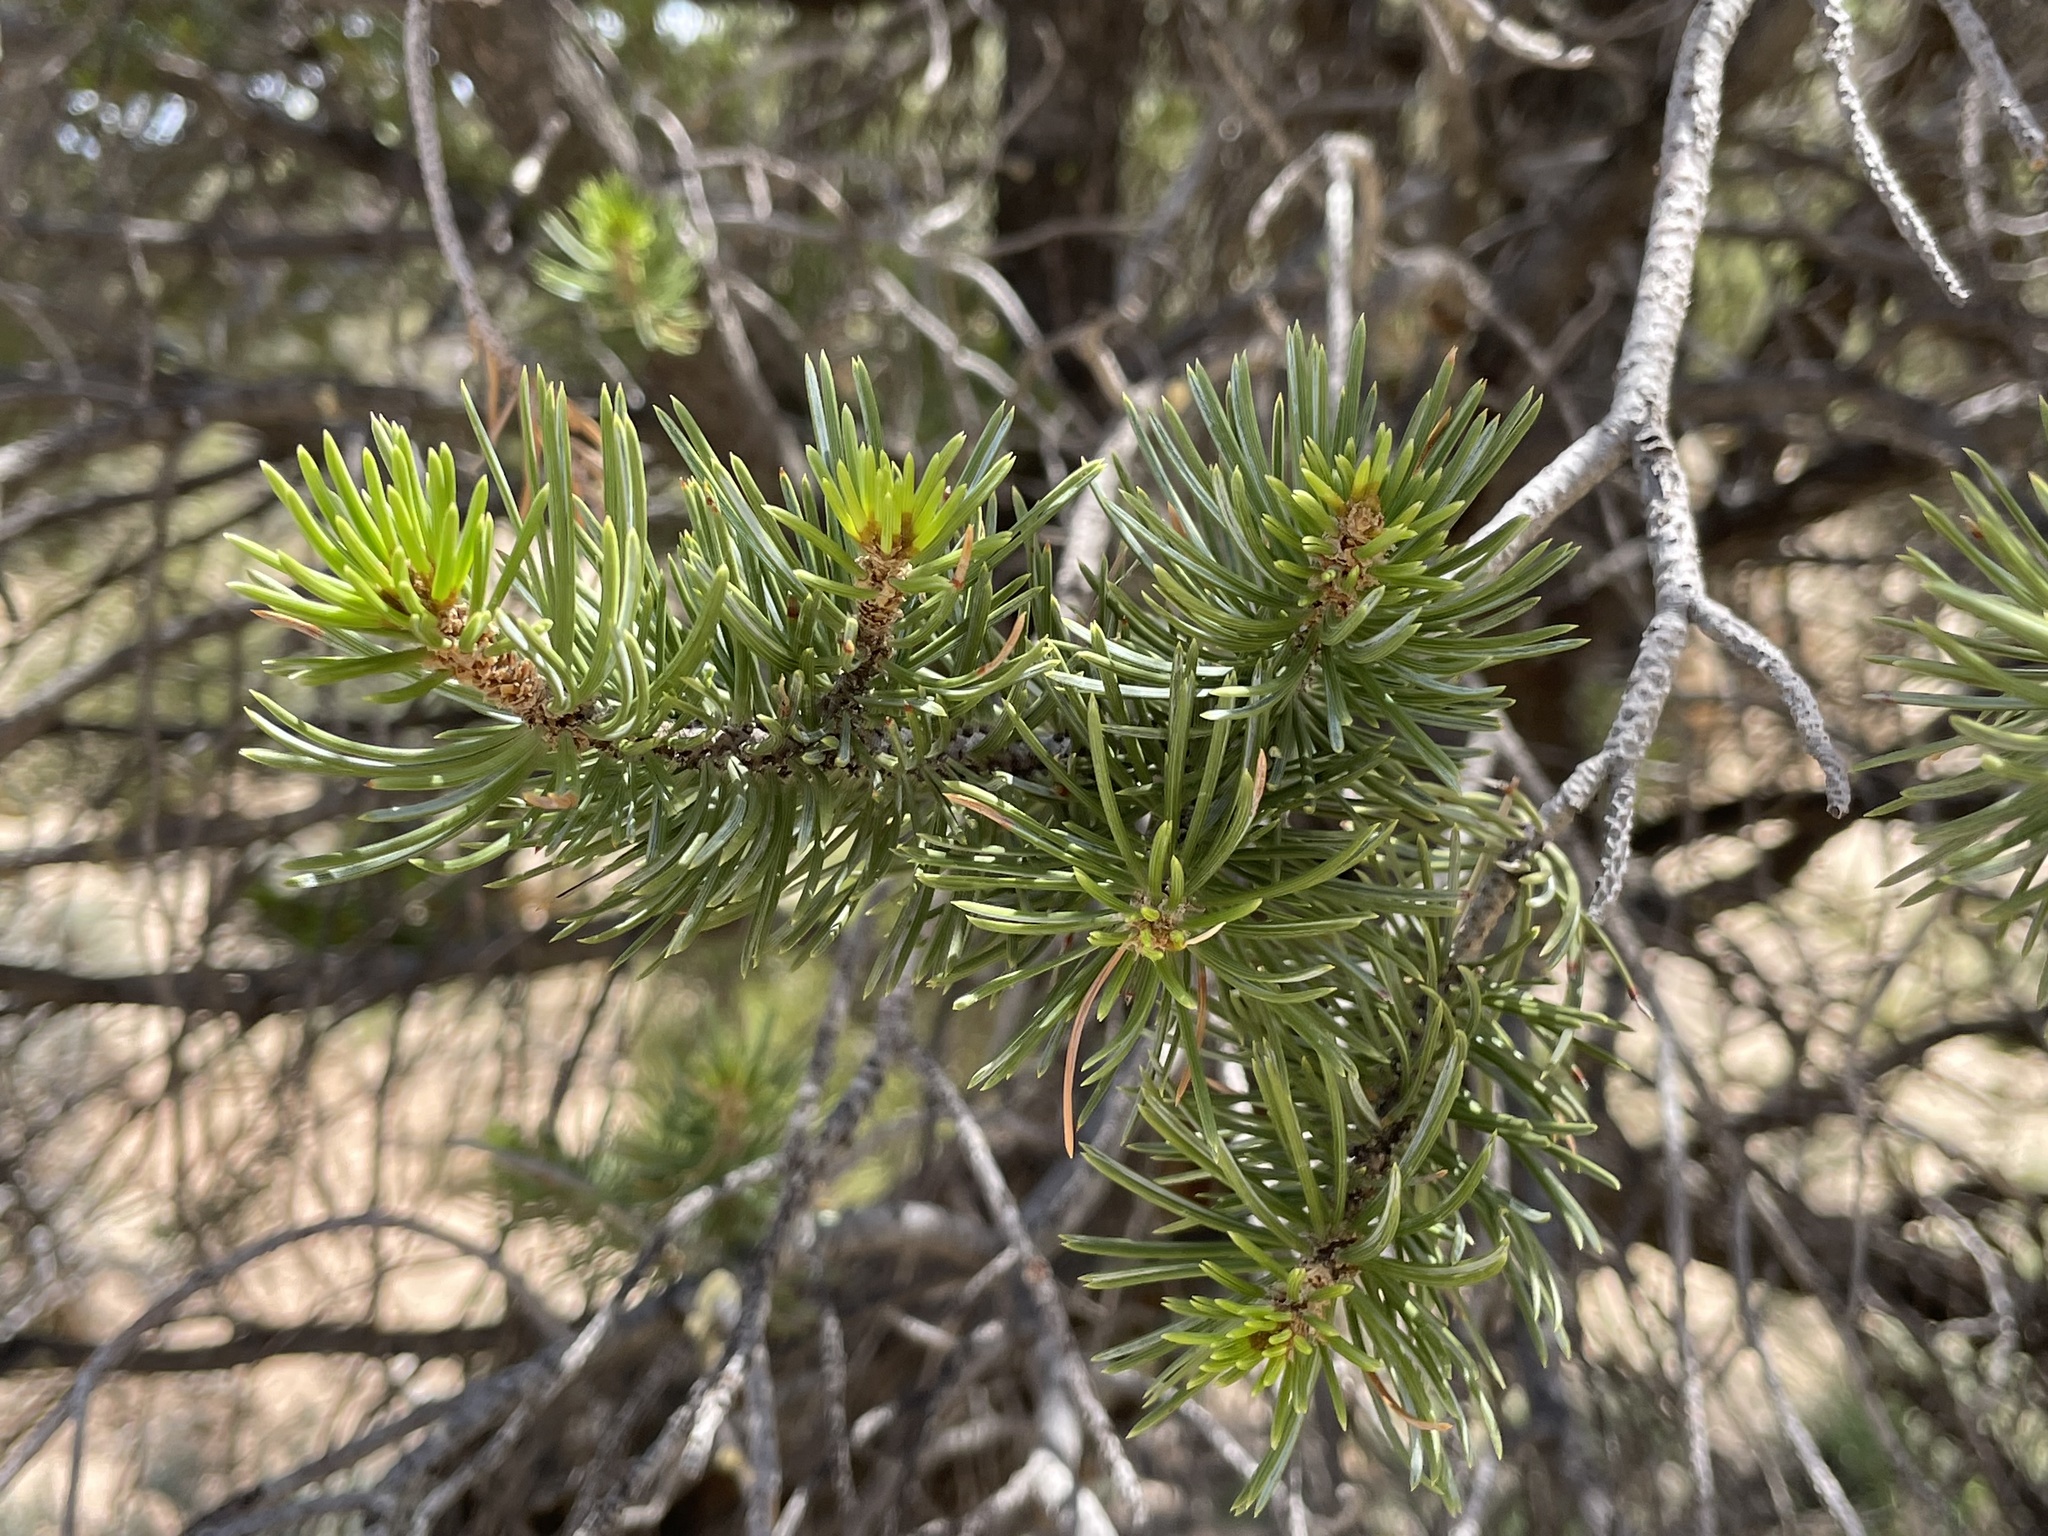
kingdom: Plantae
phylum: Tracheophyta
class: Pinopsida
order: Pinales
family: Pinaceae
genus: Pinus
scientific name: Pinus edulis
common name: Colorado pinyon
